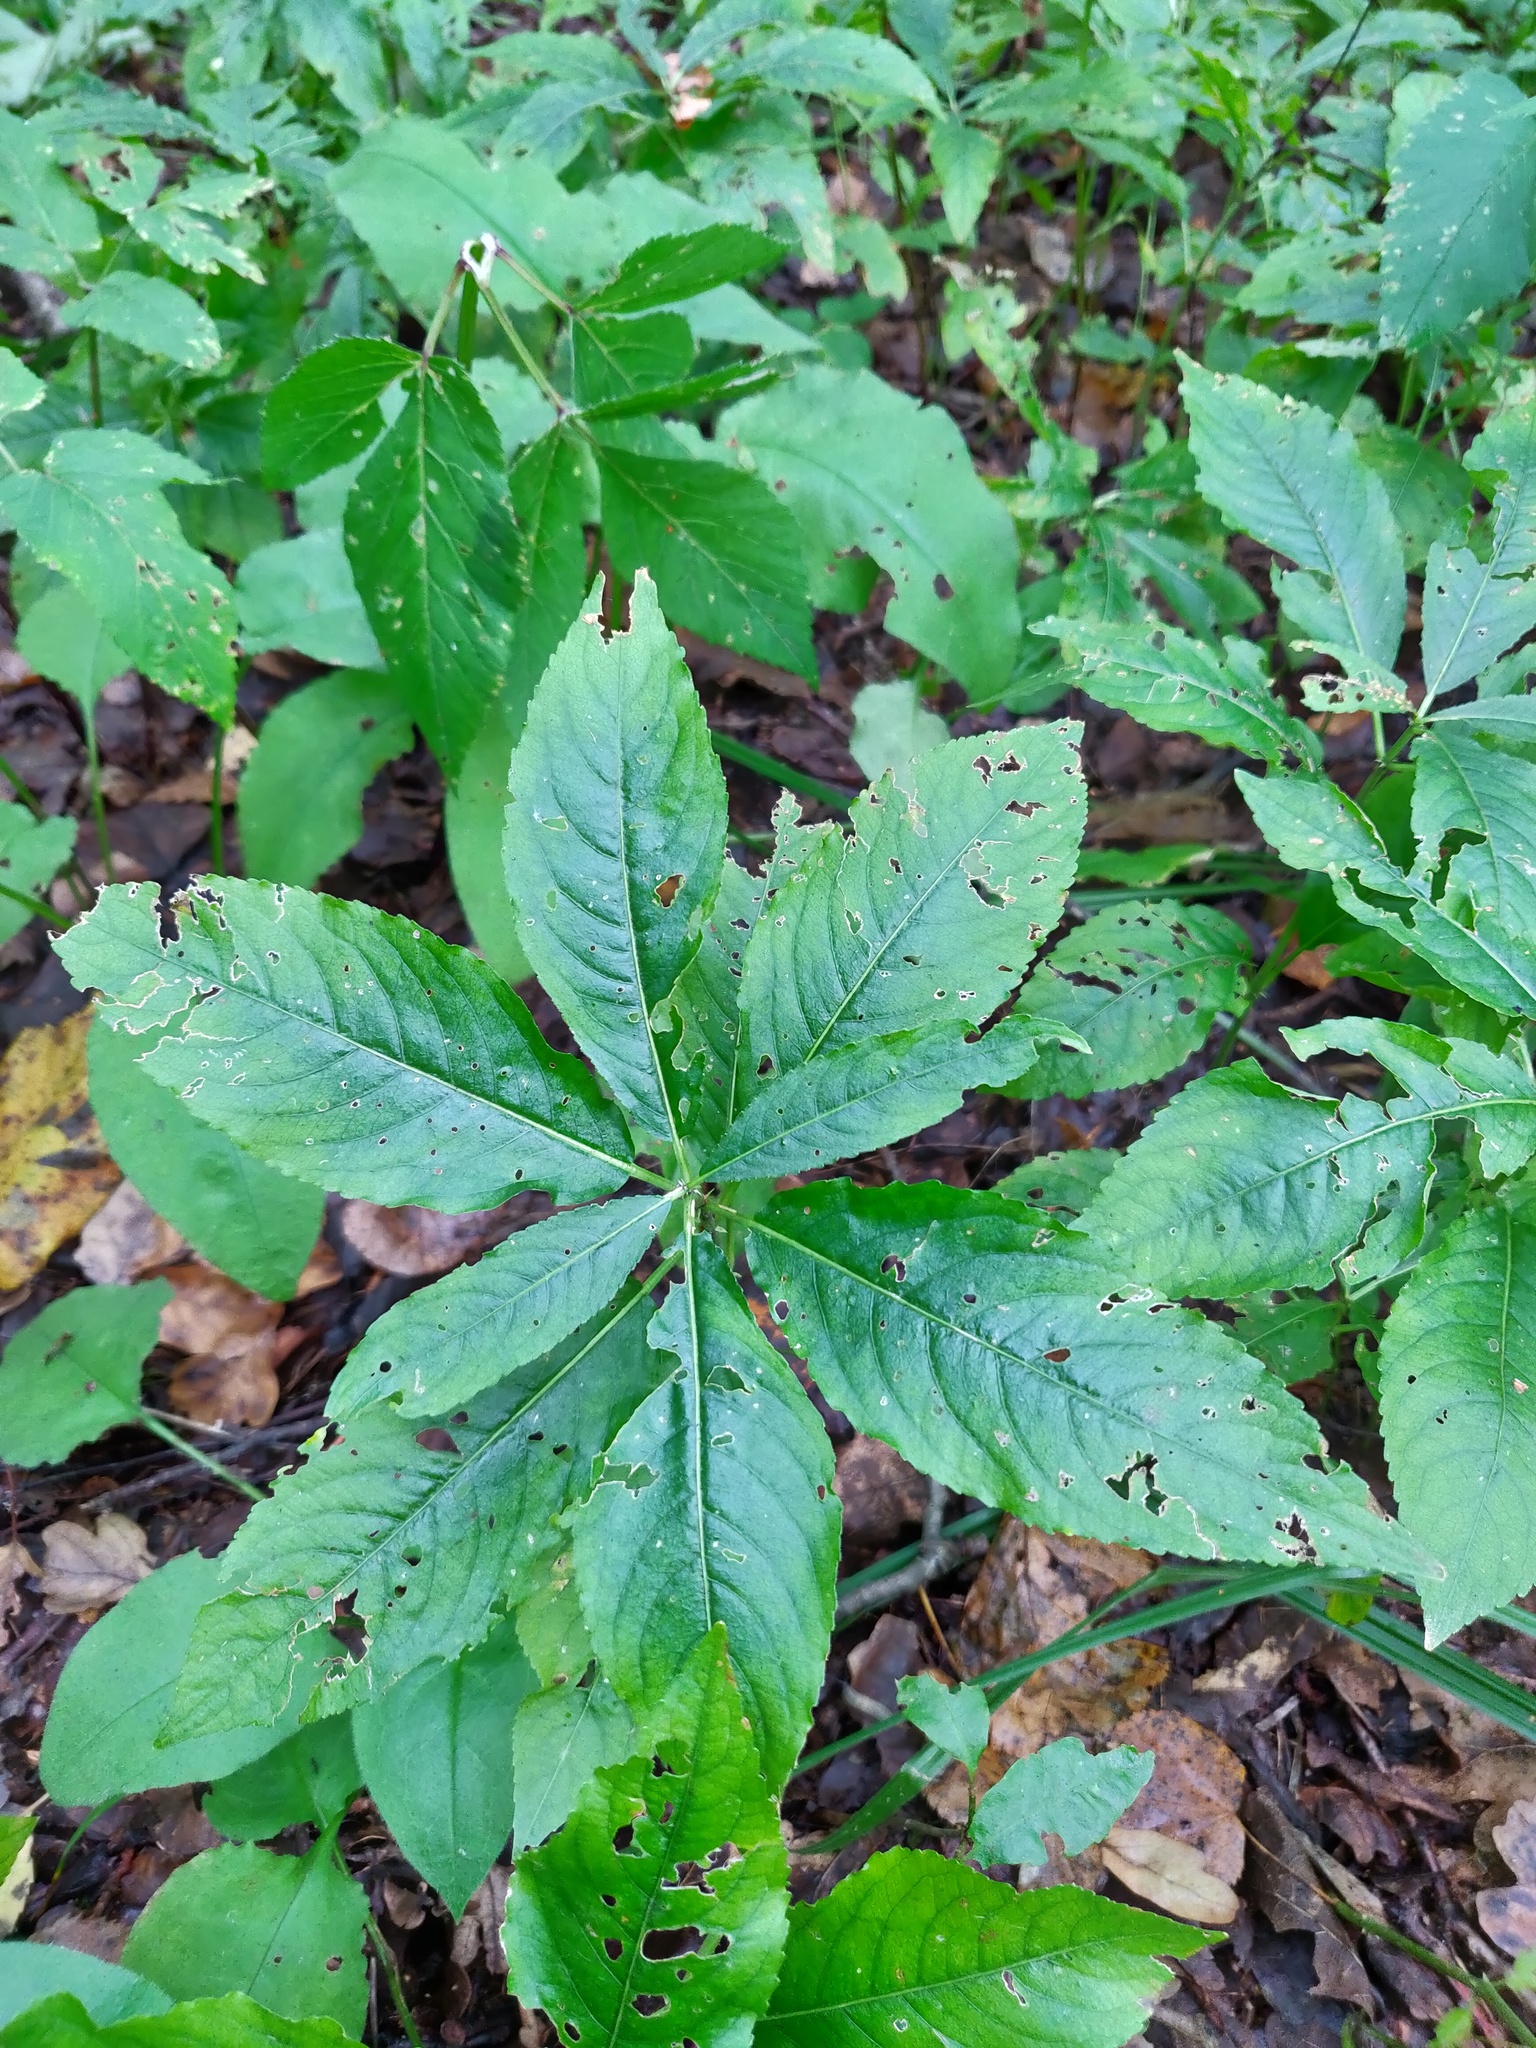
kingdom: Plantae
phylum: Tracheophyta
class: Magnoliopsida
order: Malpighiales
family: Euphorbiaceae
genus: Mercurialis
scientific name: Mercurialis perennis
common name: Dog mercury
